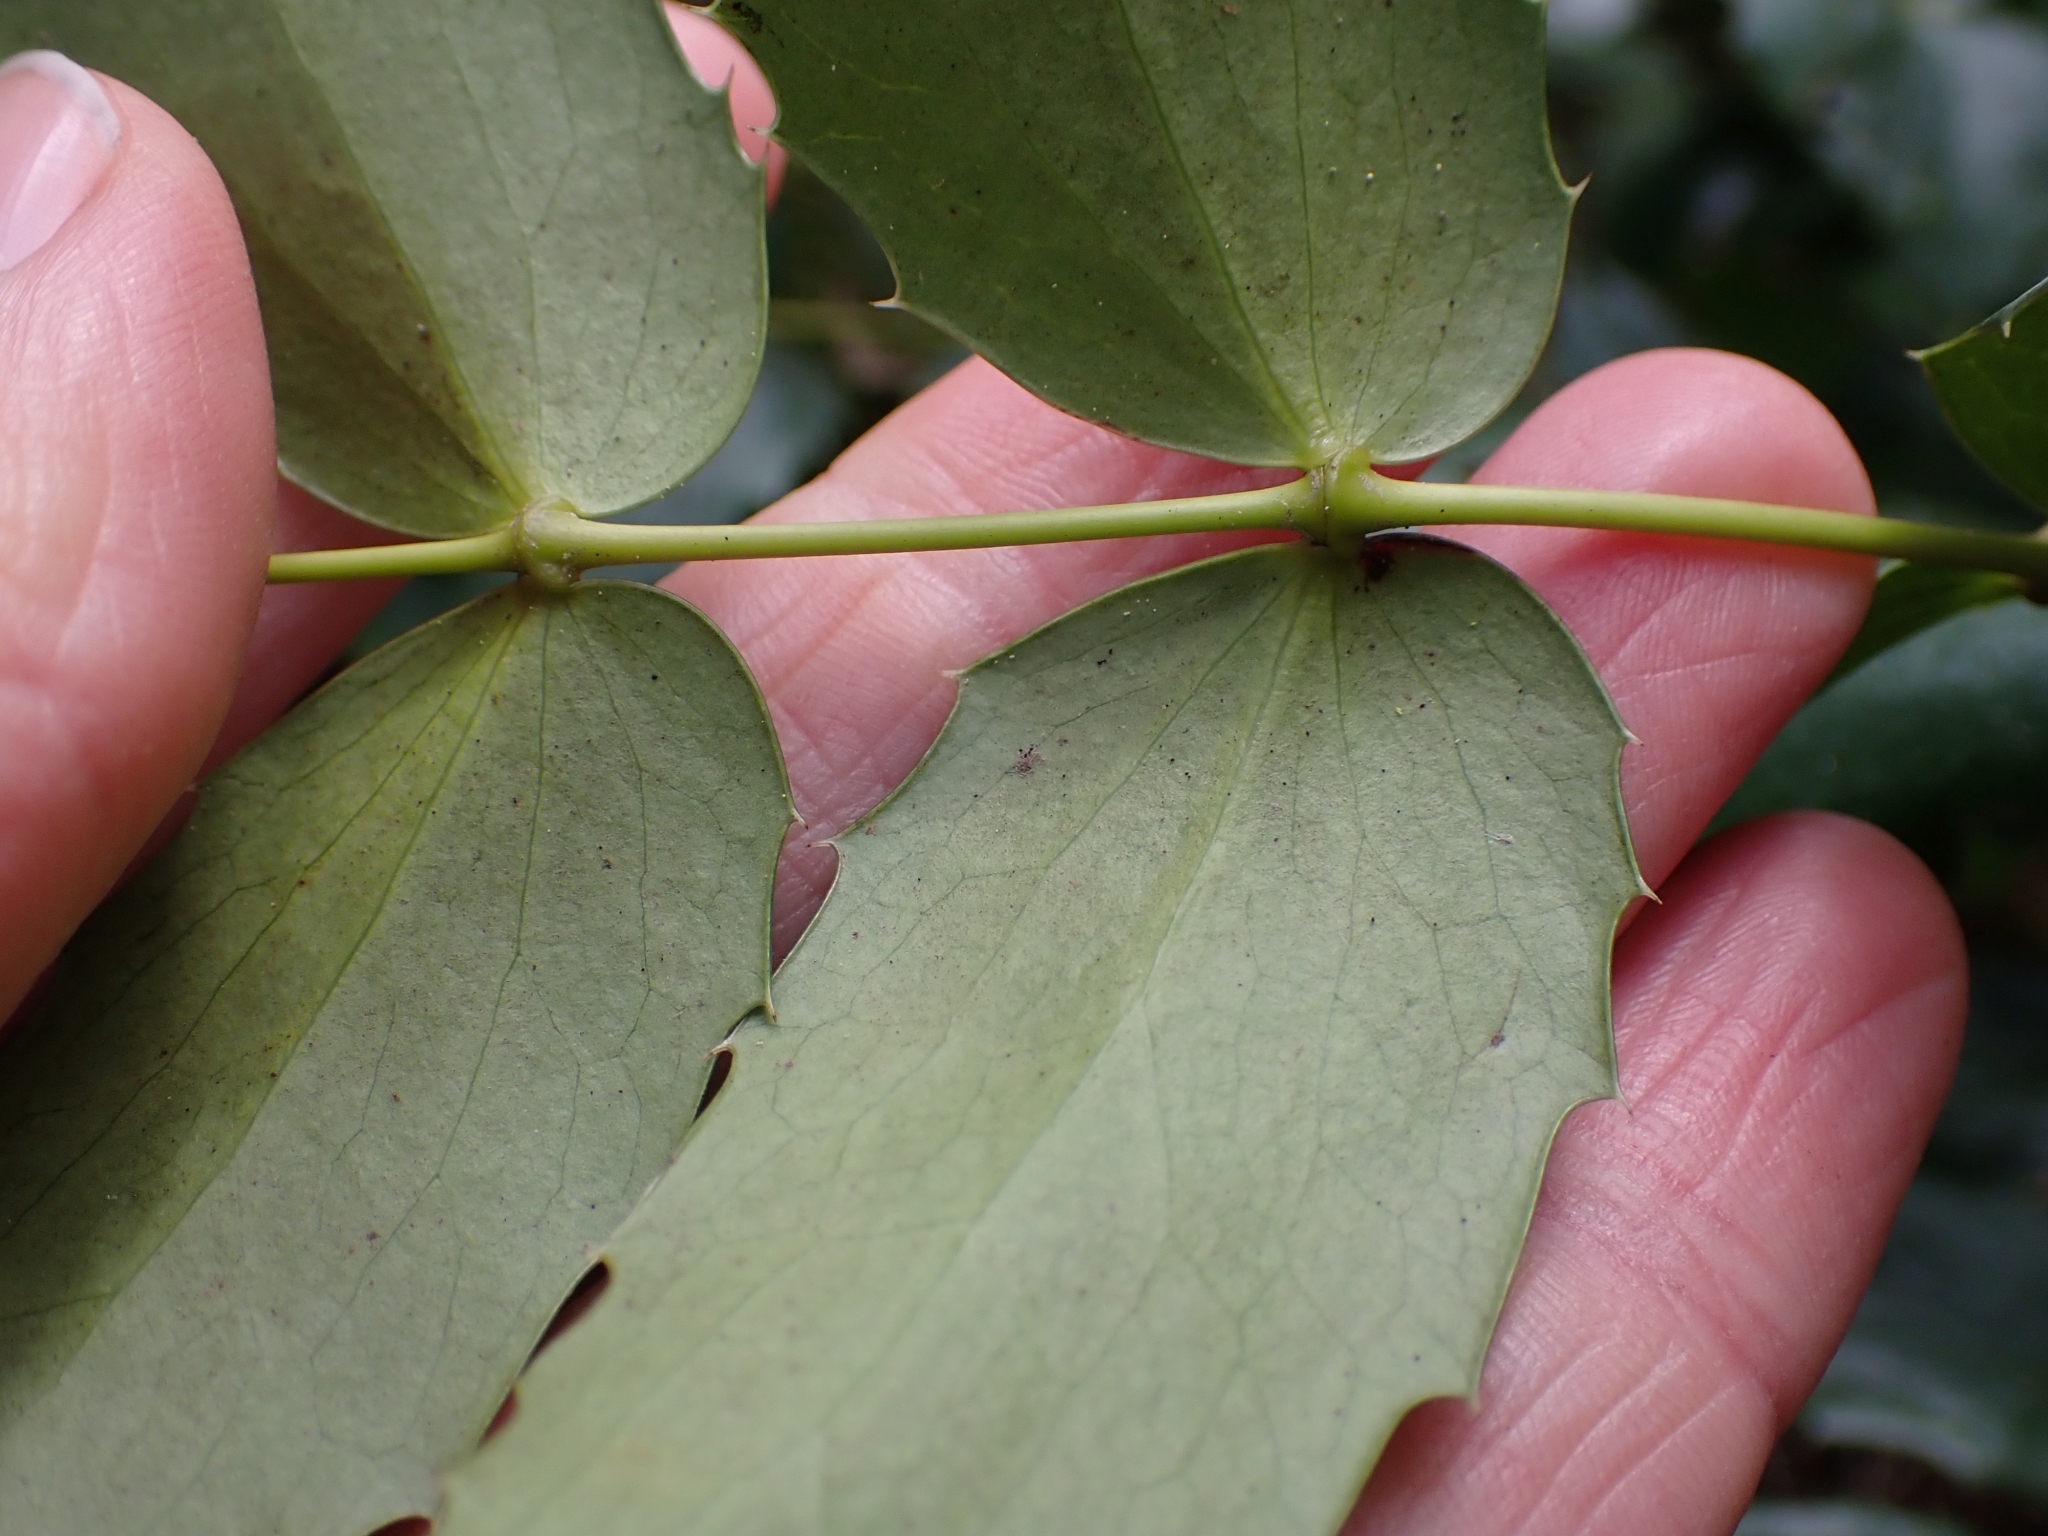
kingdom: Plantae
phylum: Tracheophyta
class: Magnoliopsida
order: Ranunculales
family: Berberidaceae
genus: Mahonia
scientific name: Mahonia nervosa
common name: Cascade oregon-grape
